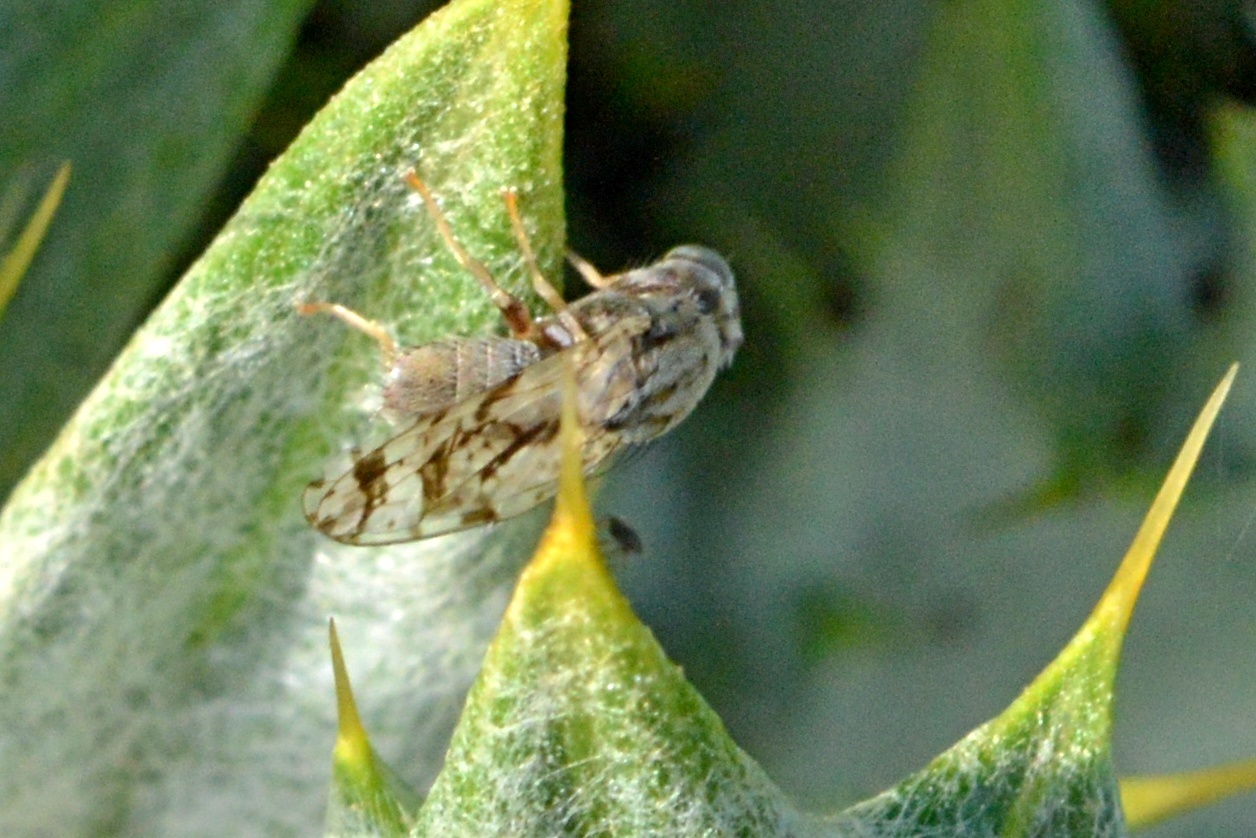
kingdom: Animalia
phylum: Arthropoda
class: Insecta
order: Diptera
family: Tephritidae
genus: Tephritis
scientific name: Tephritis postica
